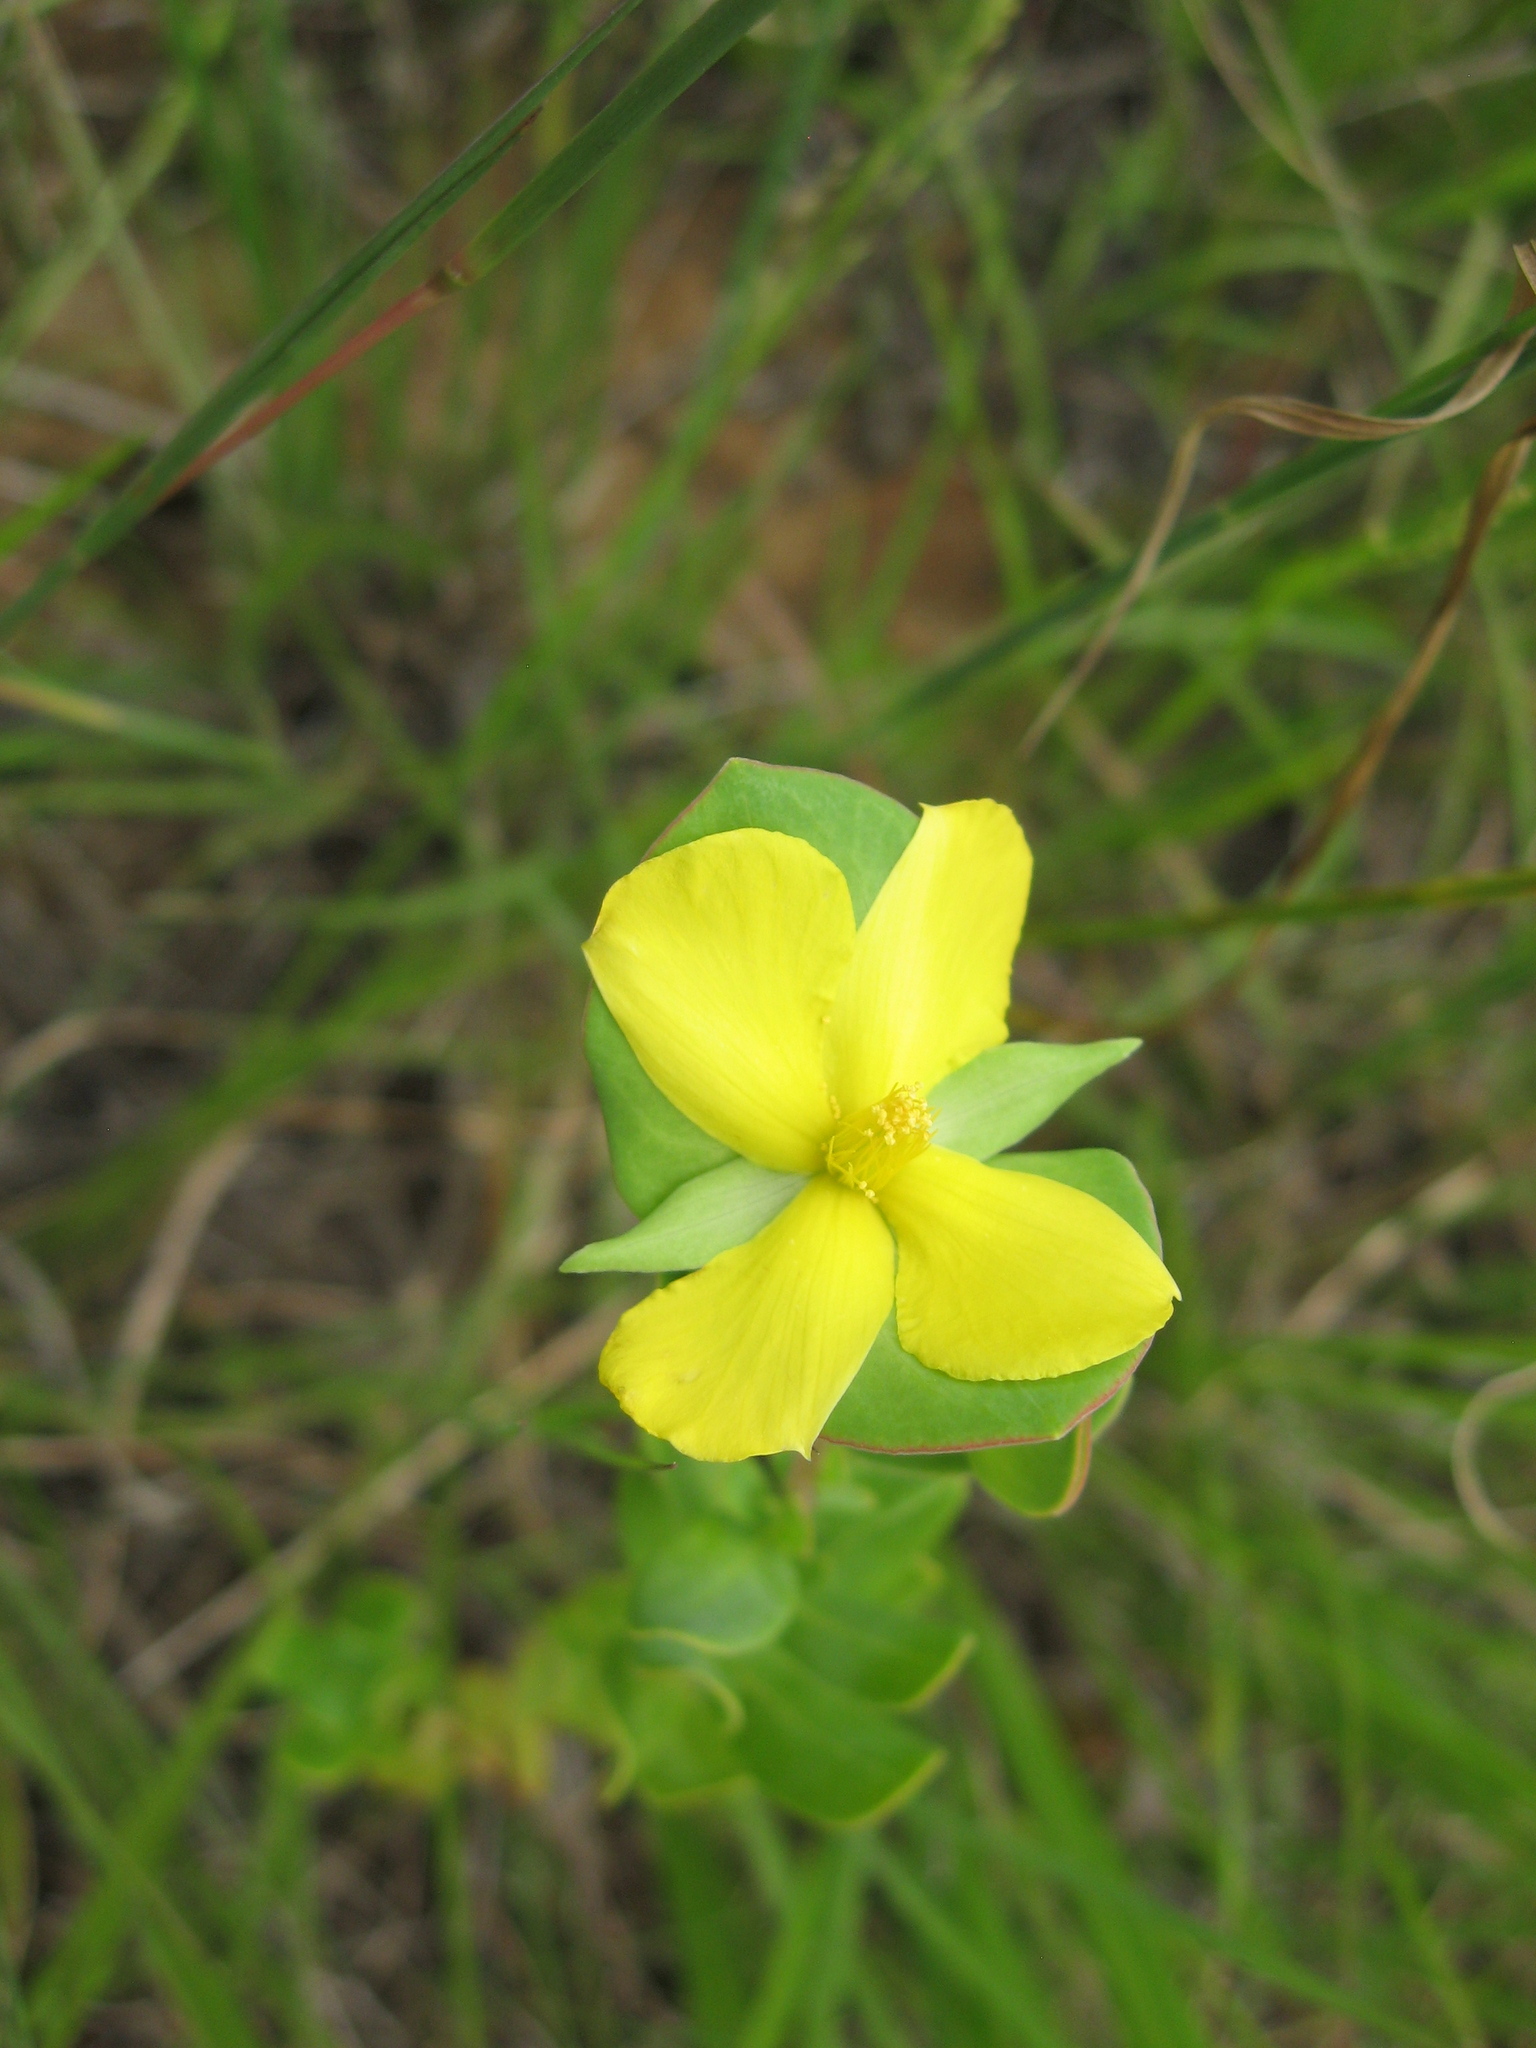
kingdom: Plantae
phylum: Tracheophyta
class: Magnoliopsida
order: Malpighiales
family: Hypericaceae
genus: Hypericum
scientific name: Hypericum crux-andreae
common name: St.-peter's-wort
